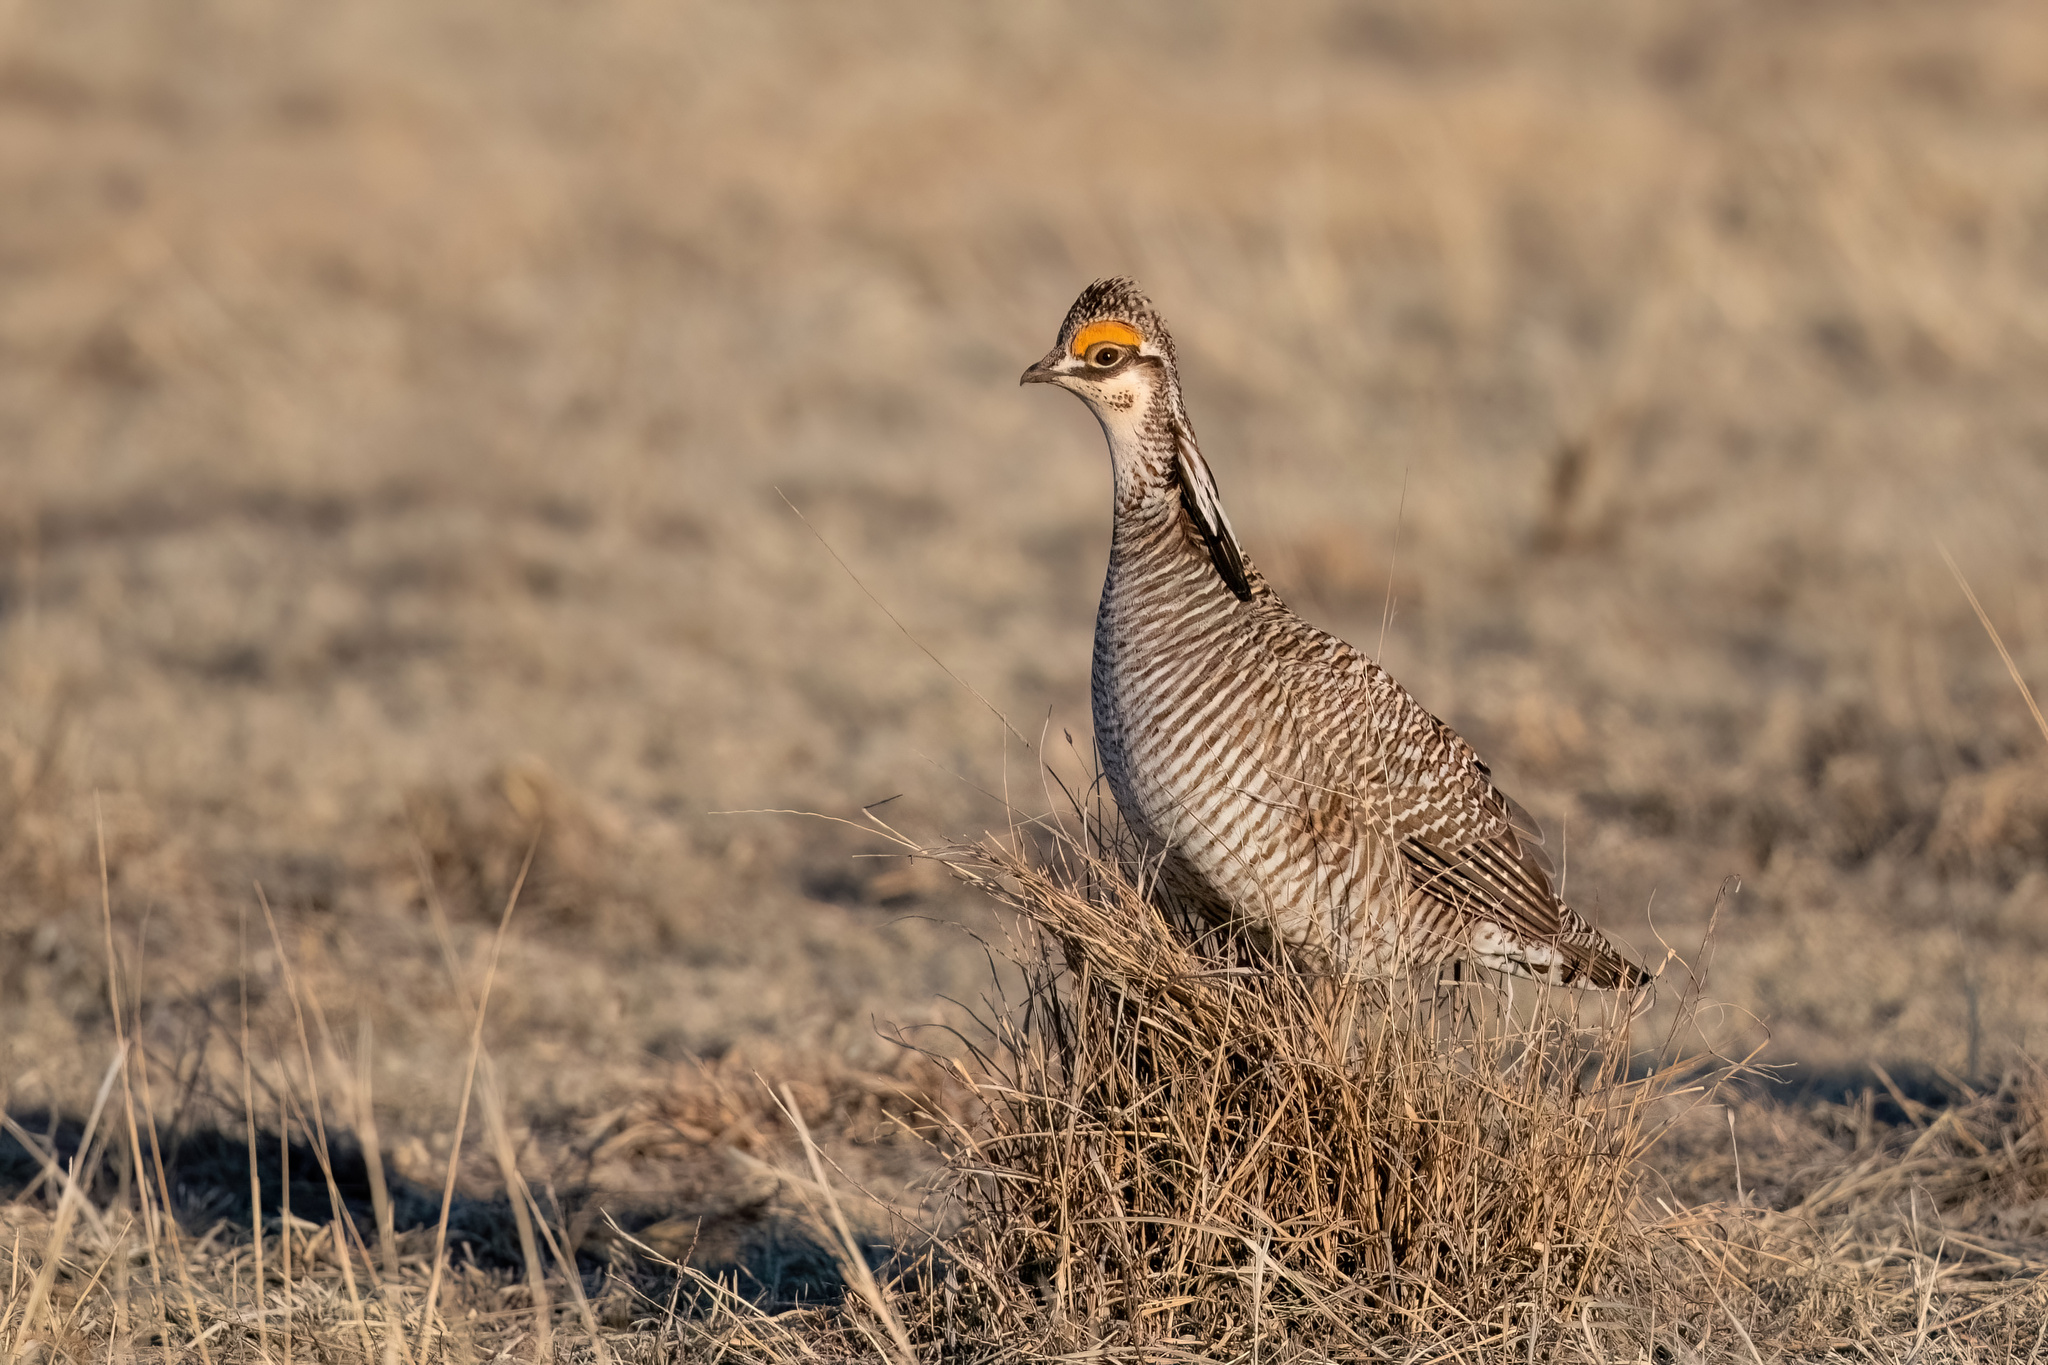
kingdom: Animalia
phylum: Chordata
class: Aves
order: Galliformes
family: Phasianidae
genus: Tympanuchus
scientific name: Tympanuchus pallidicinctus
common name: Lesser prairie chicken
